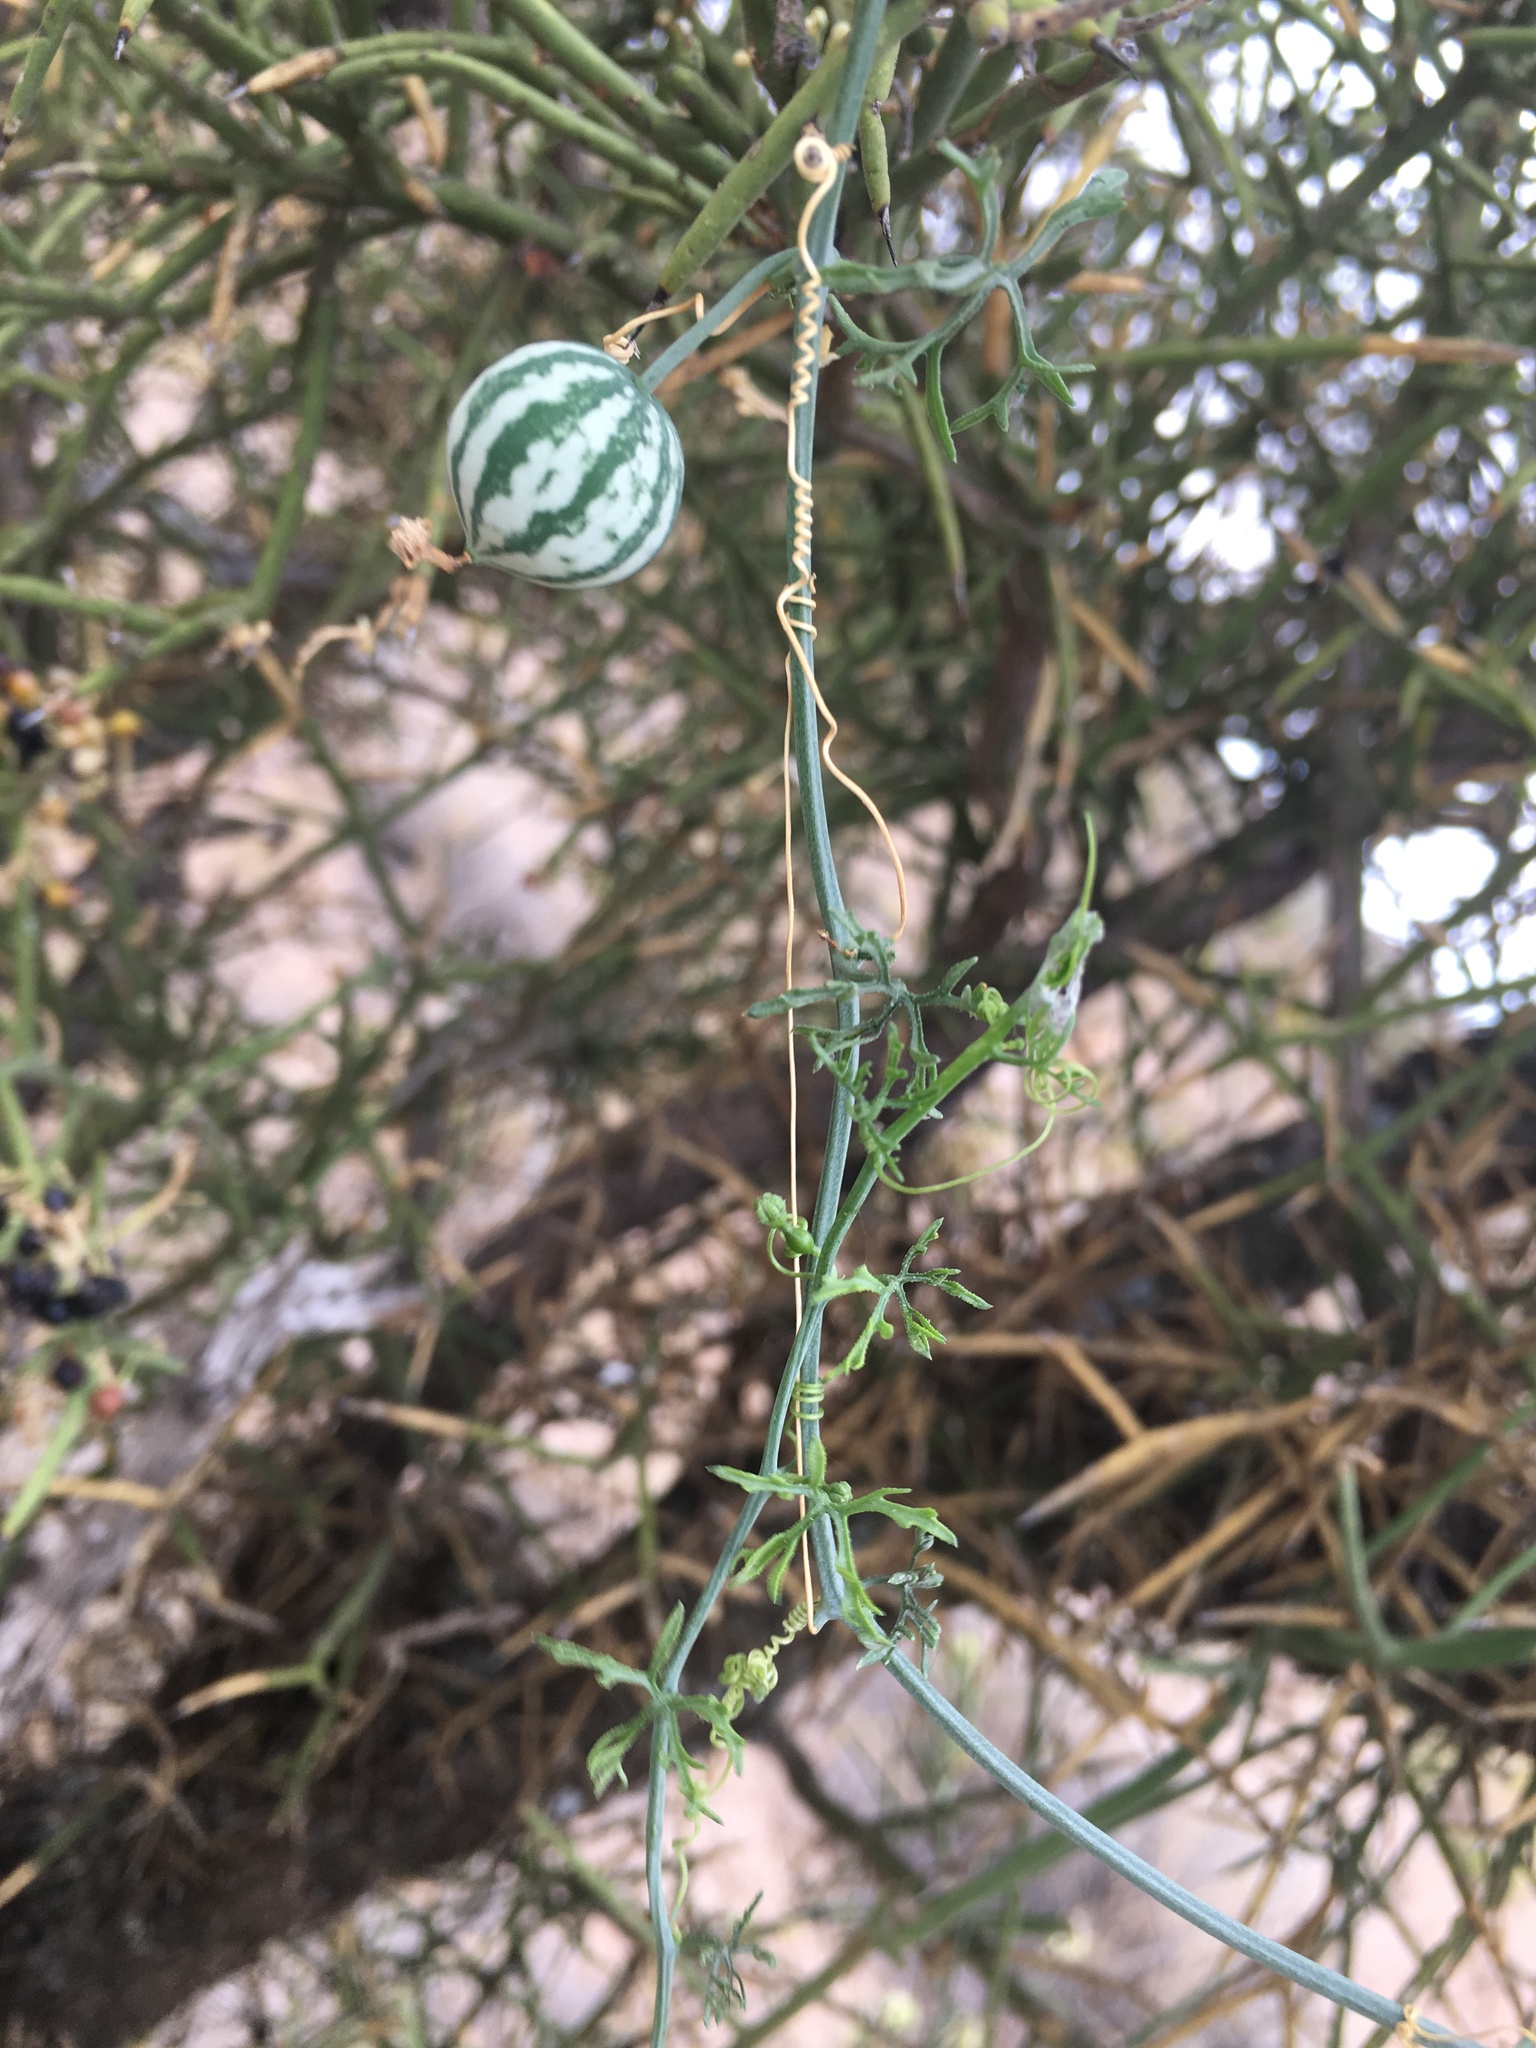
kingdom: Plantae
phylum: Tracheophyta
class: Magnoliopsida
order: Cucurbitales
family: Cucurbitaceae
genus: Ibervillea
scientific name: Ibervillea tenuisecta
